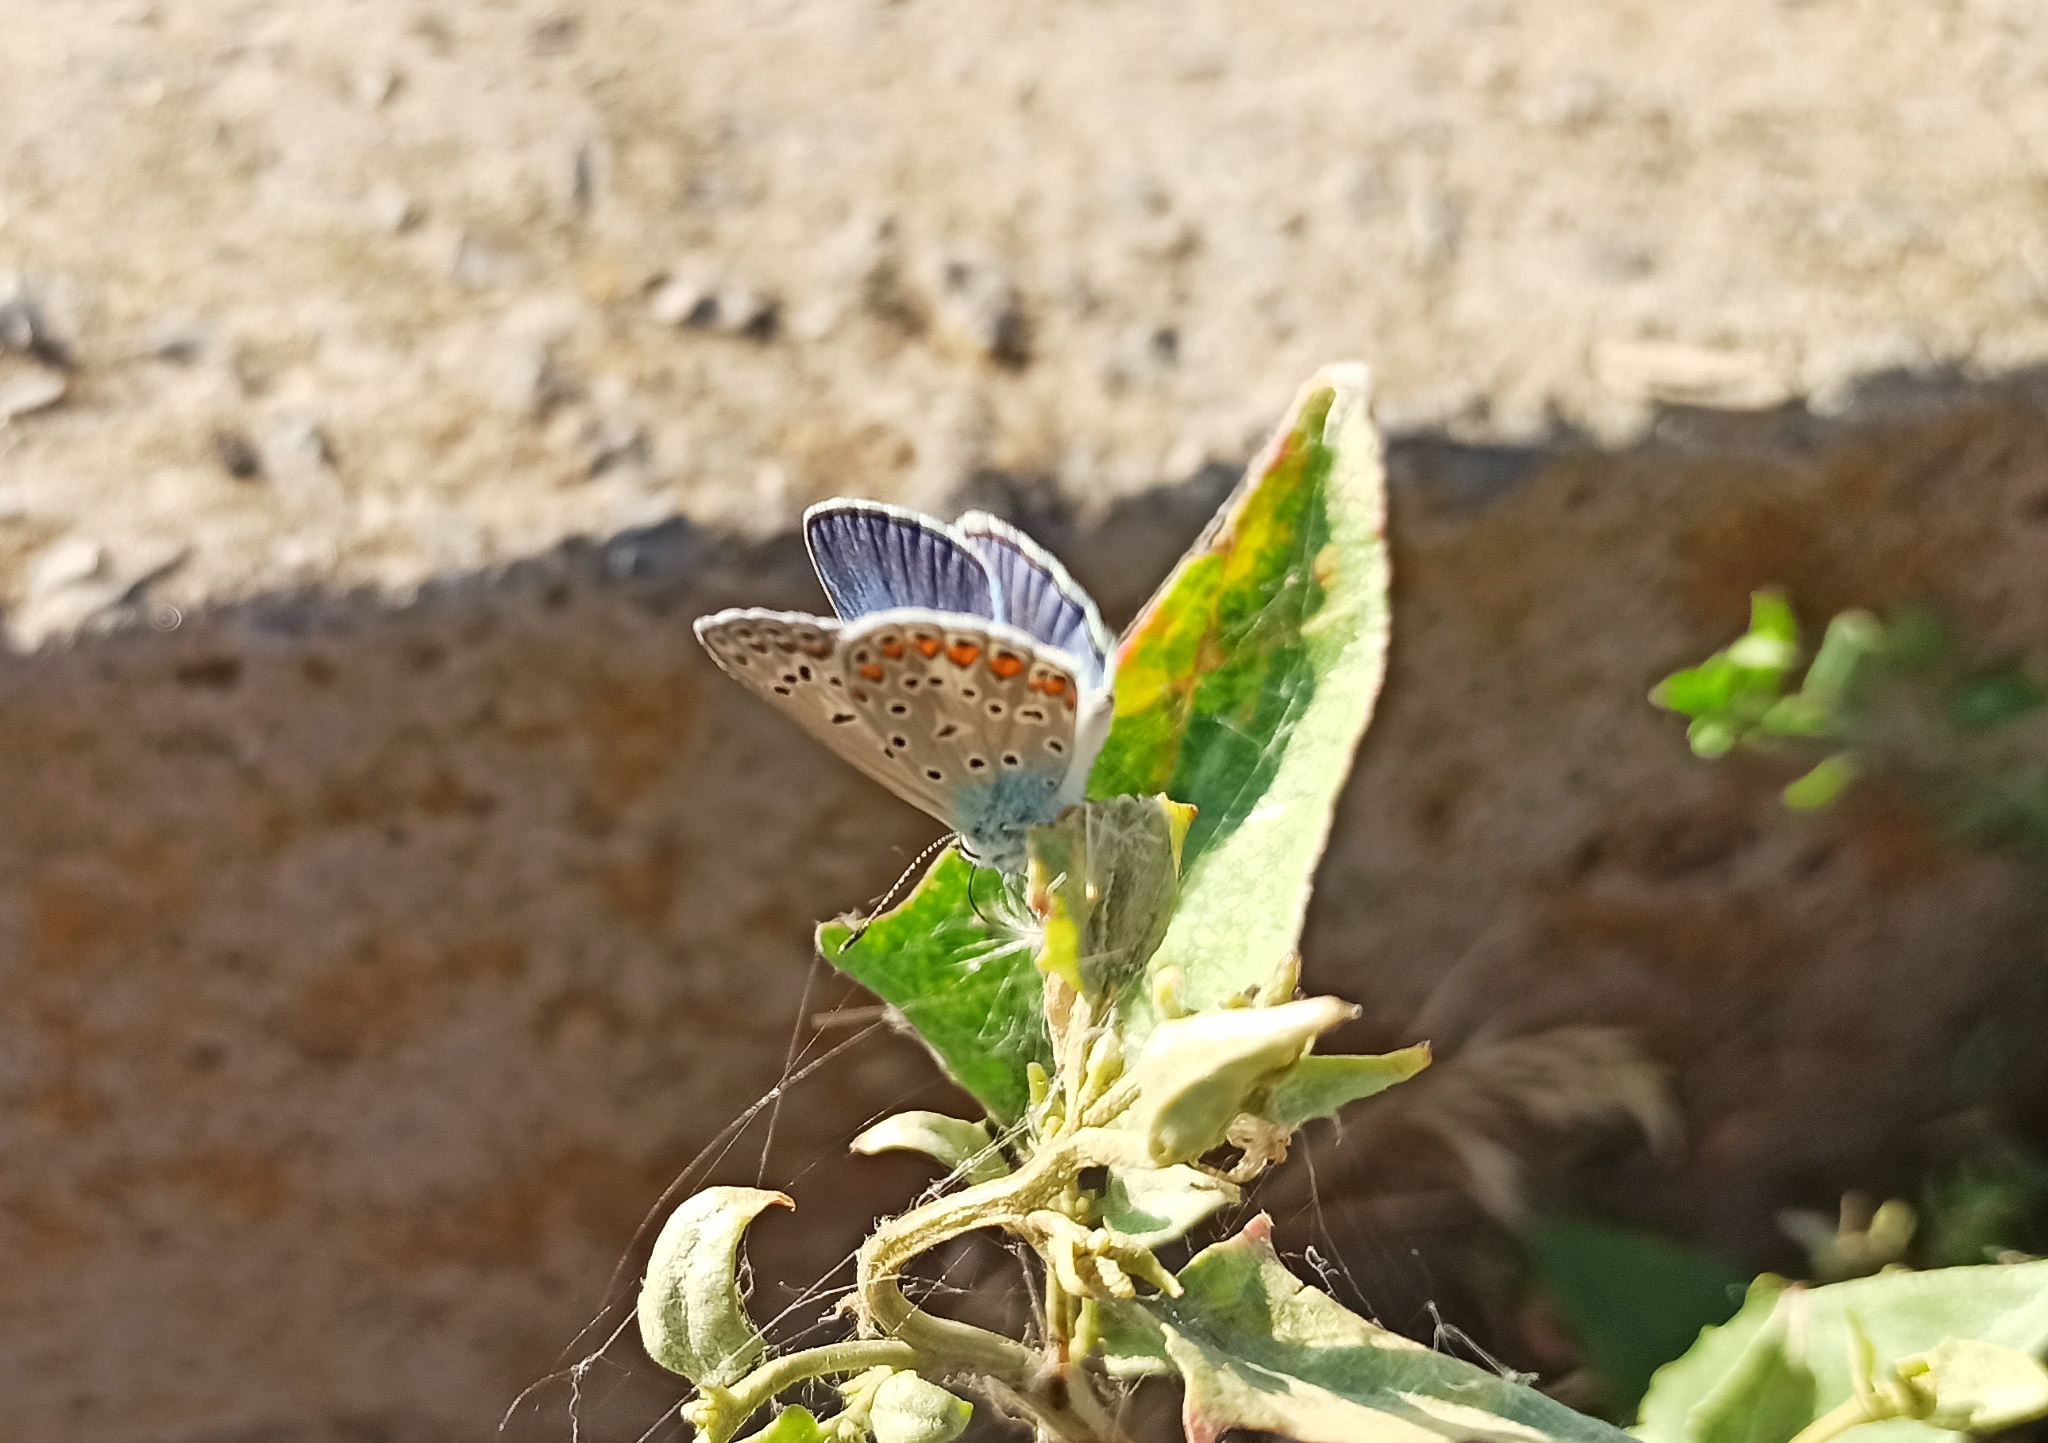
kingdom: Animalia
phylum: Arthropoda
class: Insecta
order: Lepidoptera
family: Lycaenidae
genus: Polyommatus
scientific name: Polyommatus icarus
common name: Common blue
